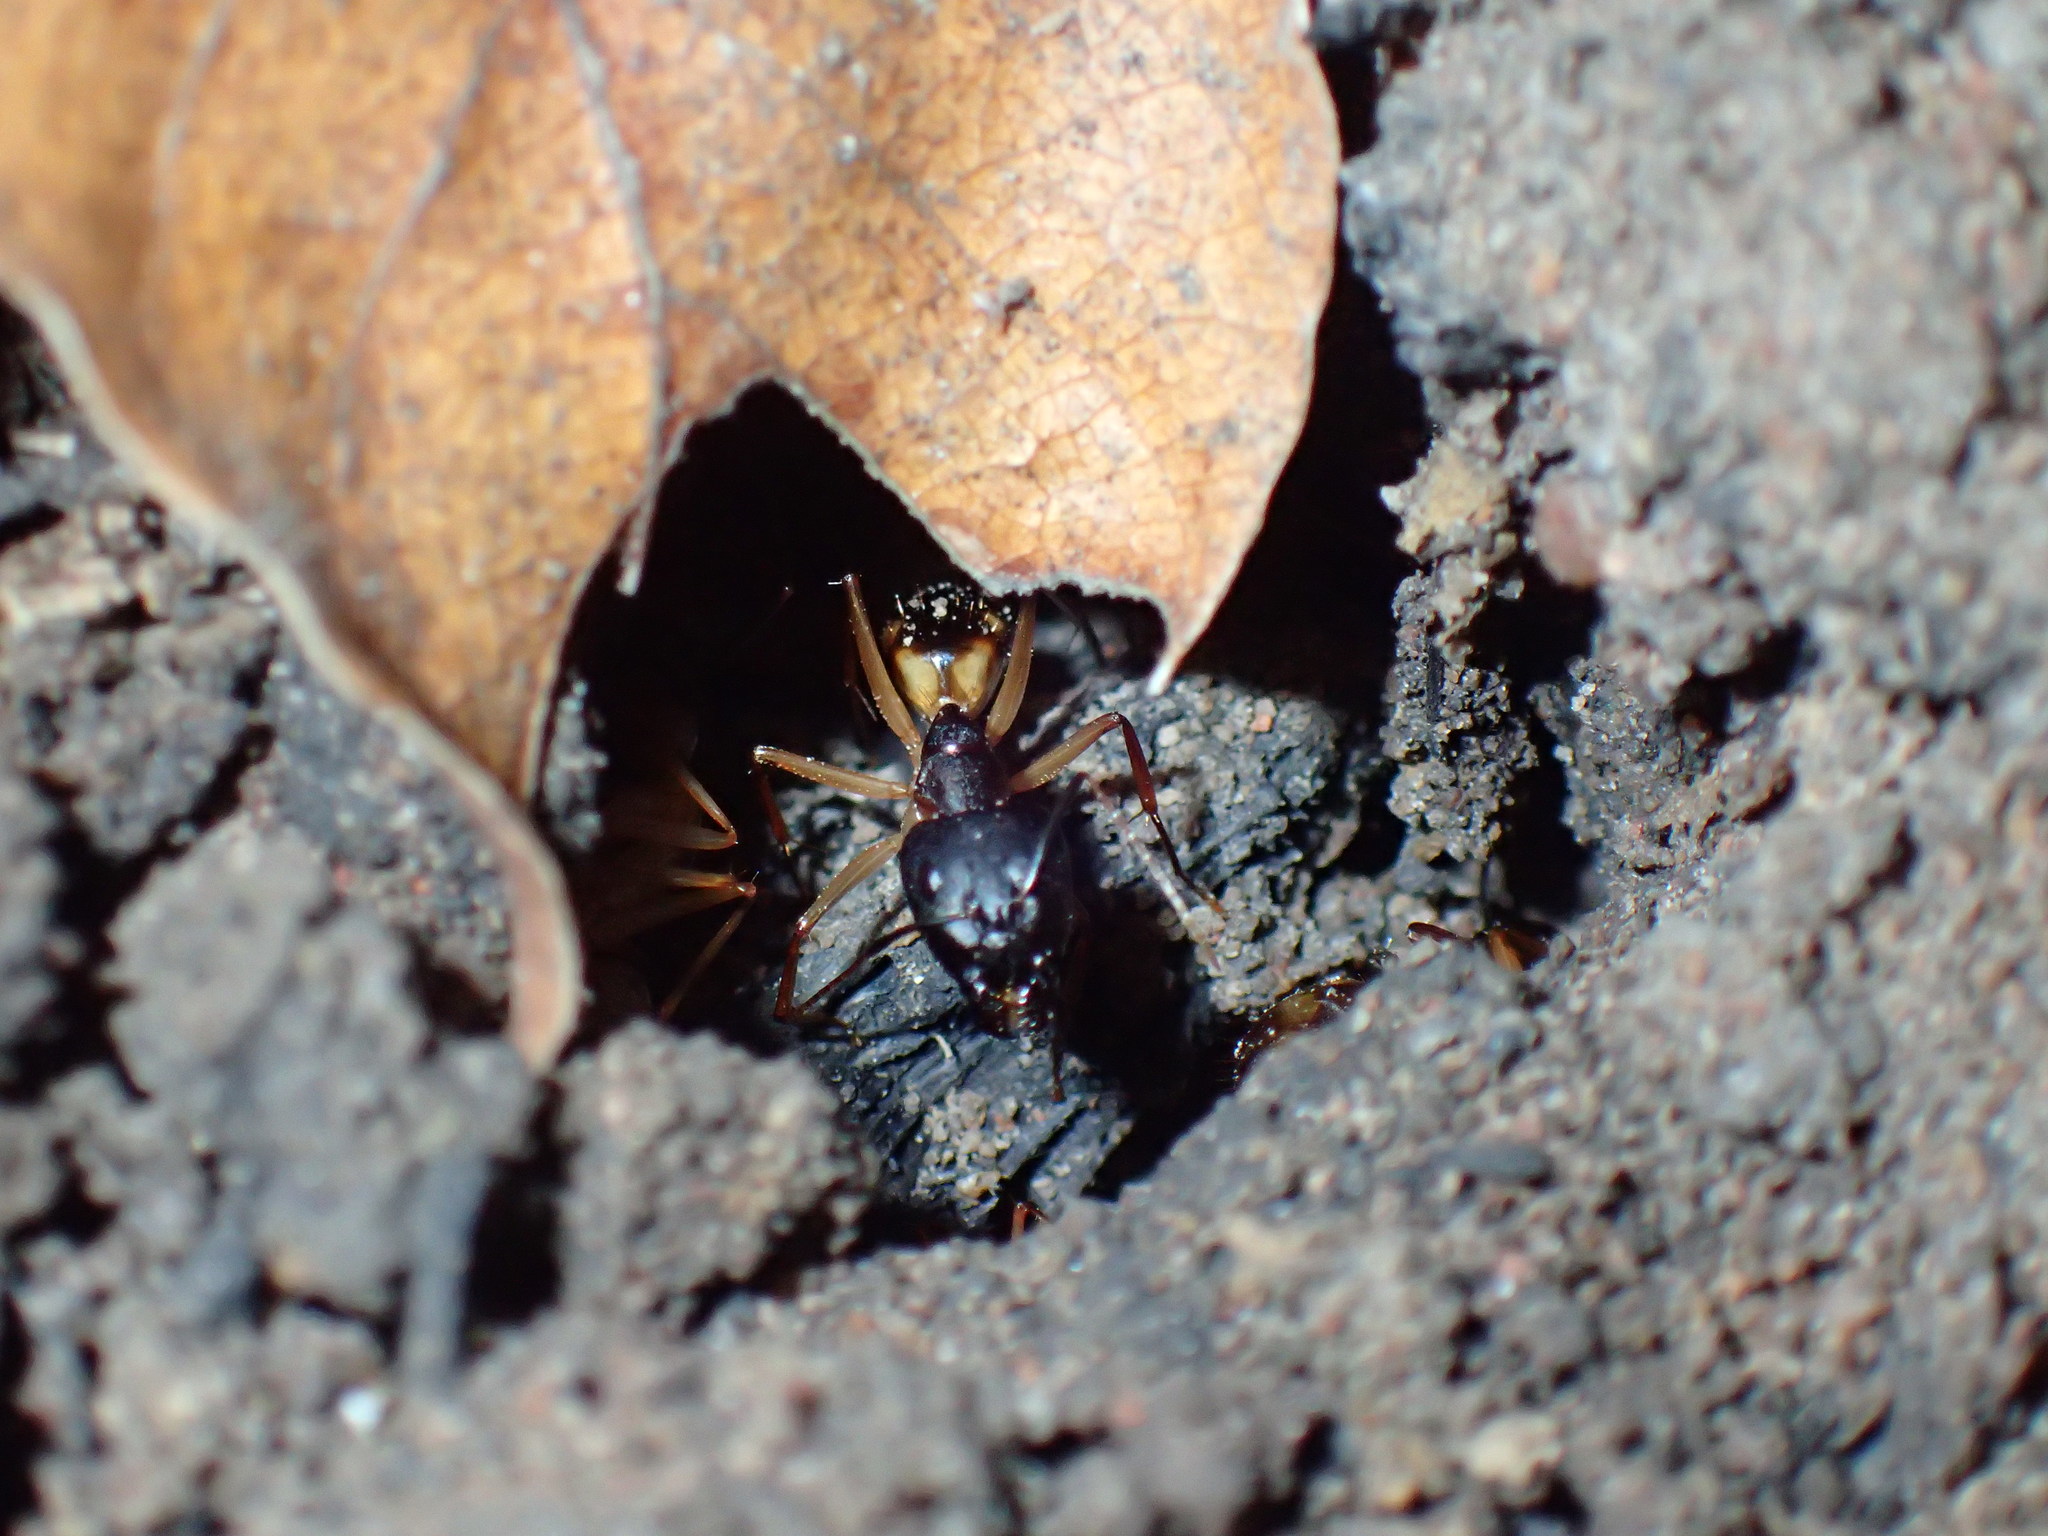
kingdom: Animalia
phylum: Arthropoda
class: Insecta
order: Hymenoptera
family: Formicidae
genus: Camponotus
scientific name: Camponotus maculatus
